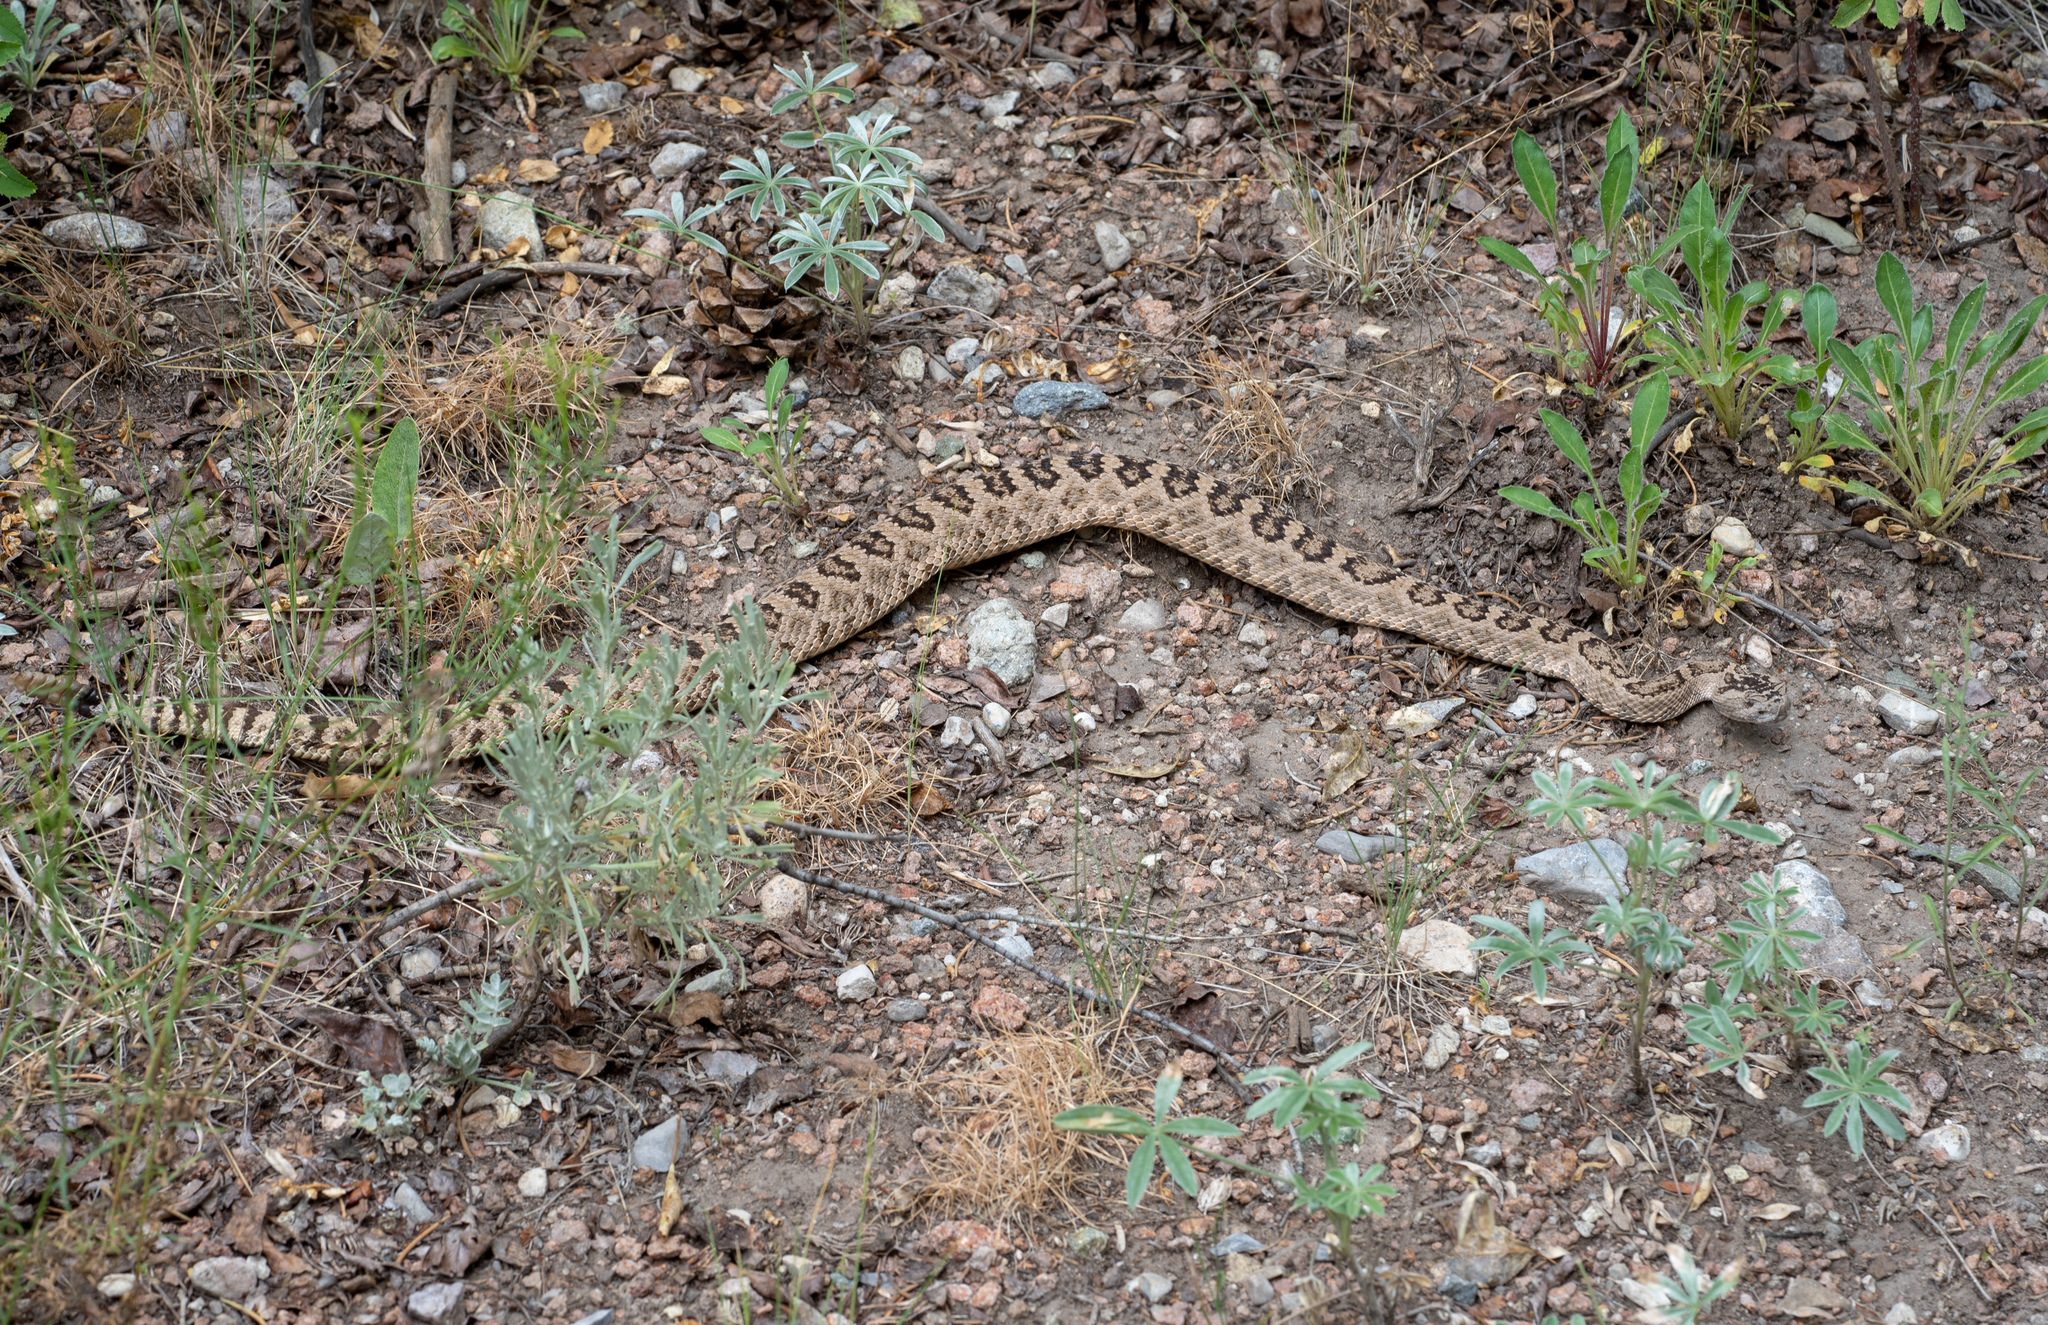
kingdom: Animalia
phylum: Chordata
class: Squamata
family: Viperidae
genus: Crotalus
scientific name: Crotalus oreganus
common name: Abyssus
